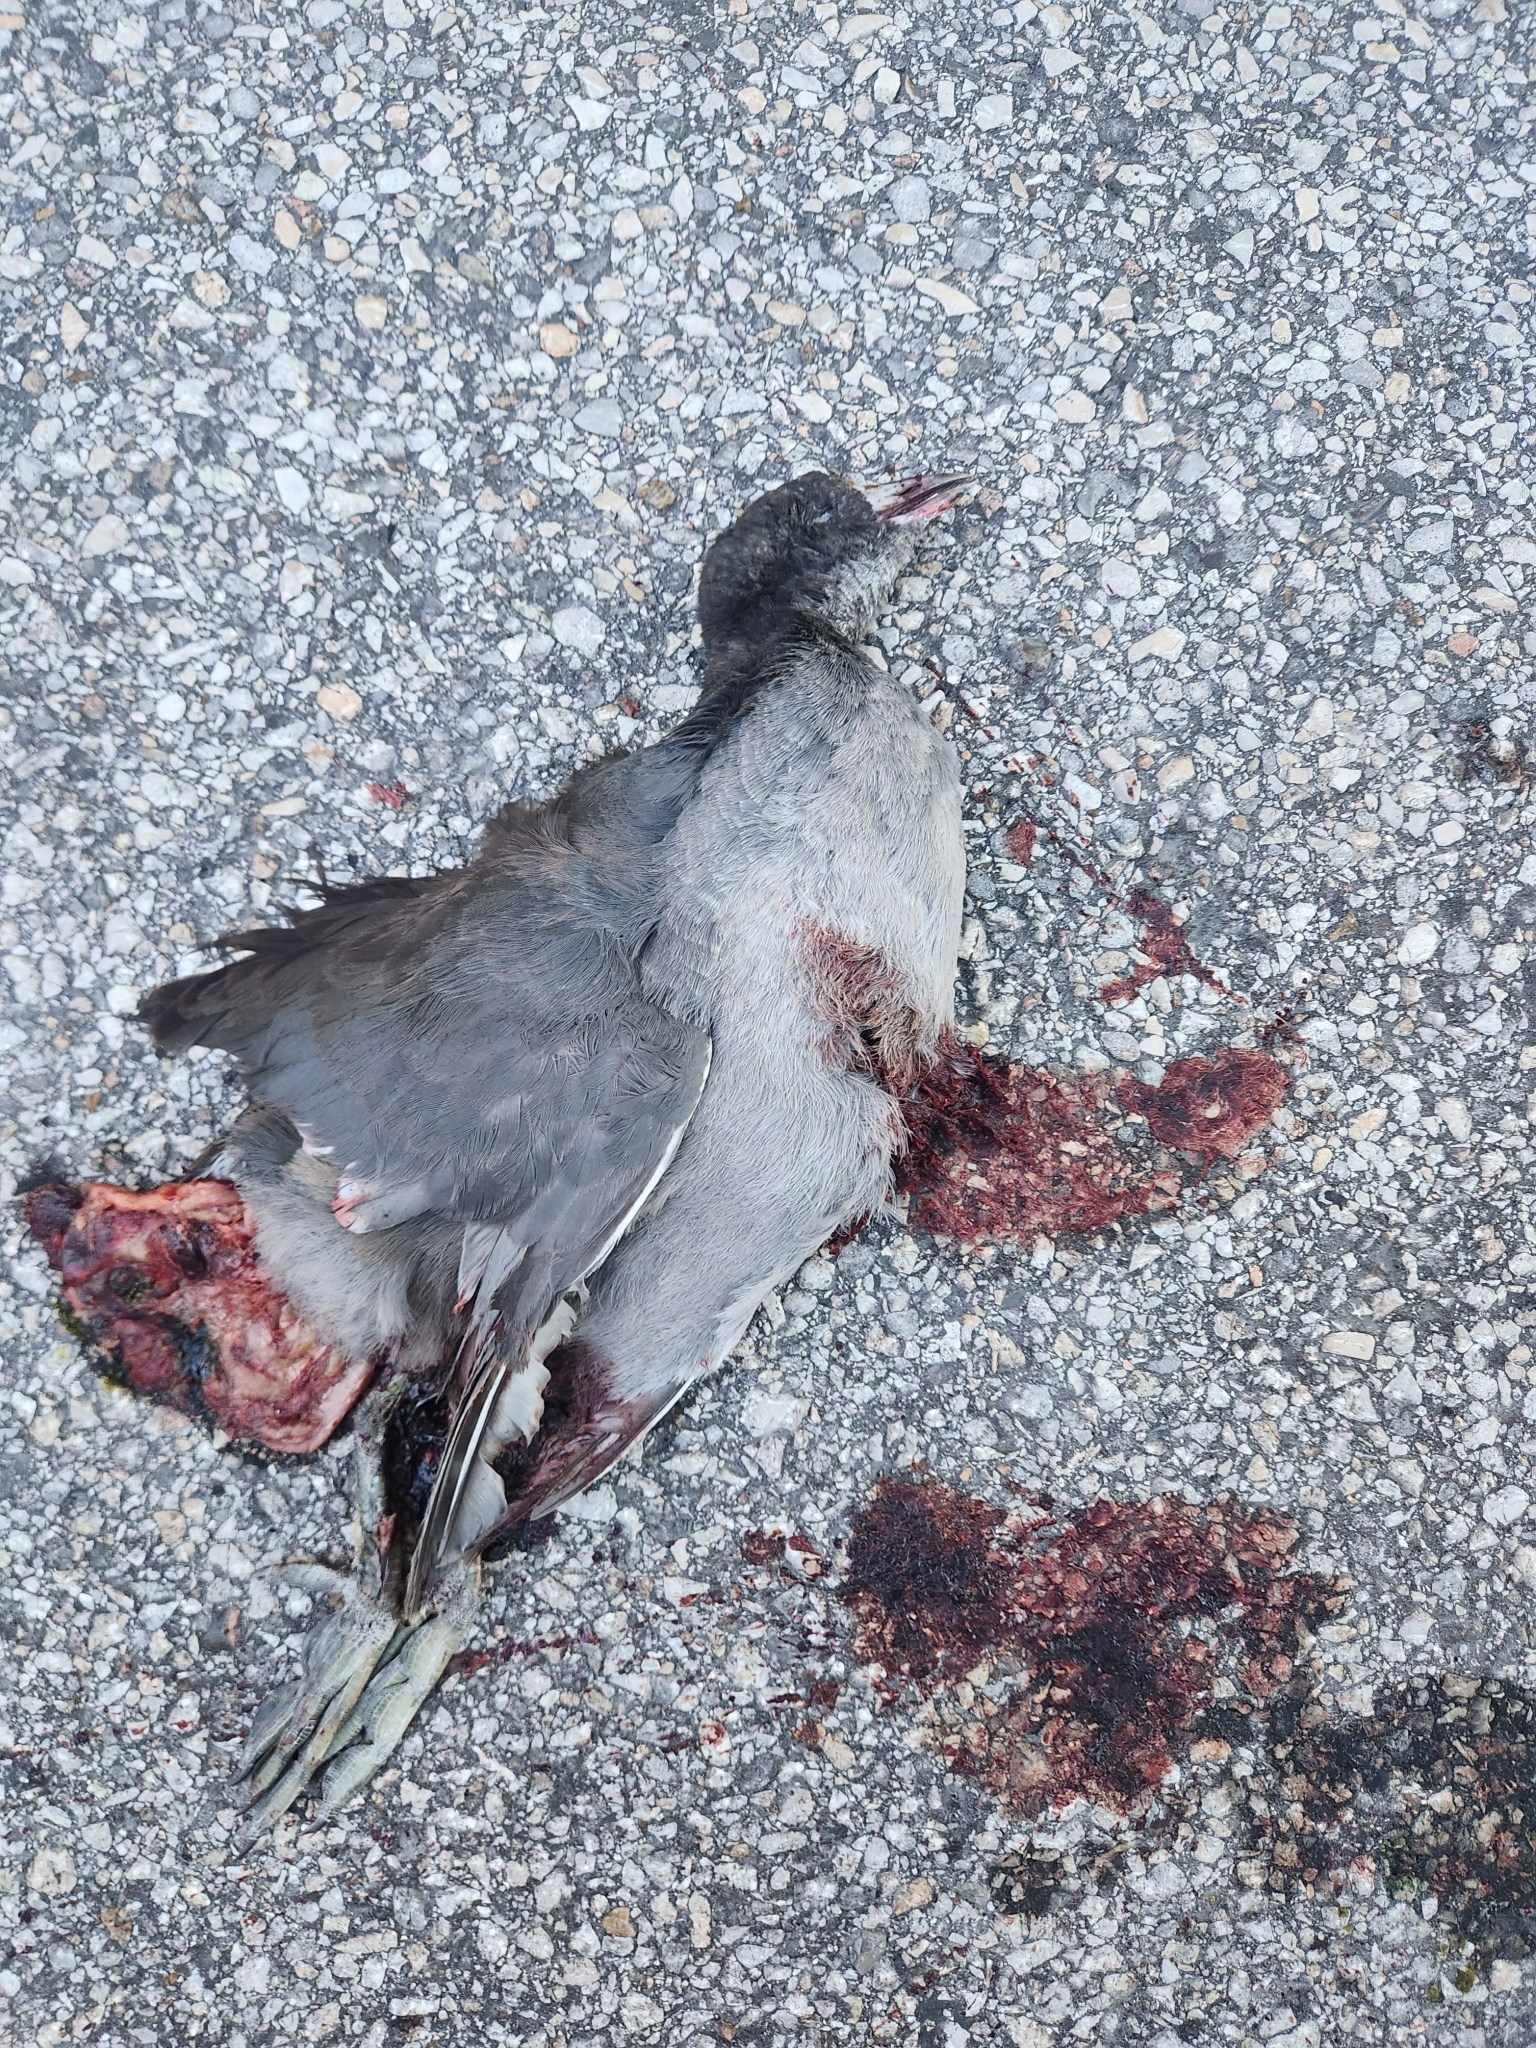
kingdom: Animalia
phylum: Chordata
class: Aves
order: Gruiformes
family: Rallidae
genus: Fulica
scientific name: Fulica americana
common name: American coot
